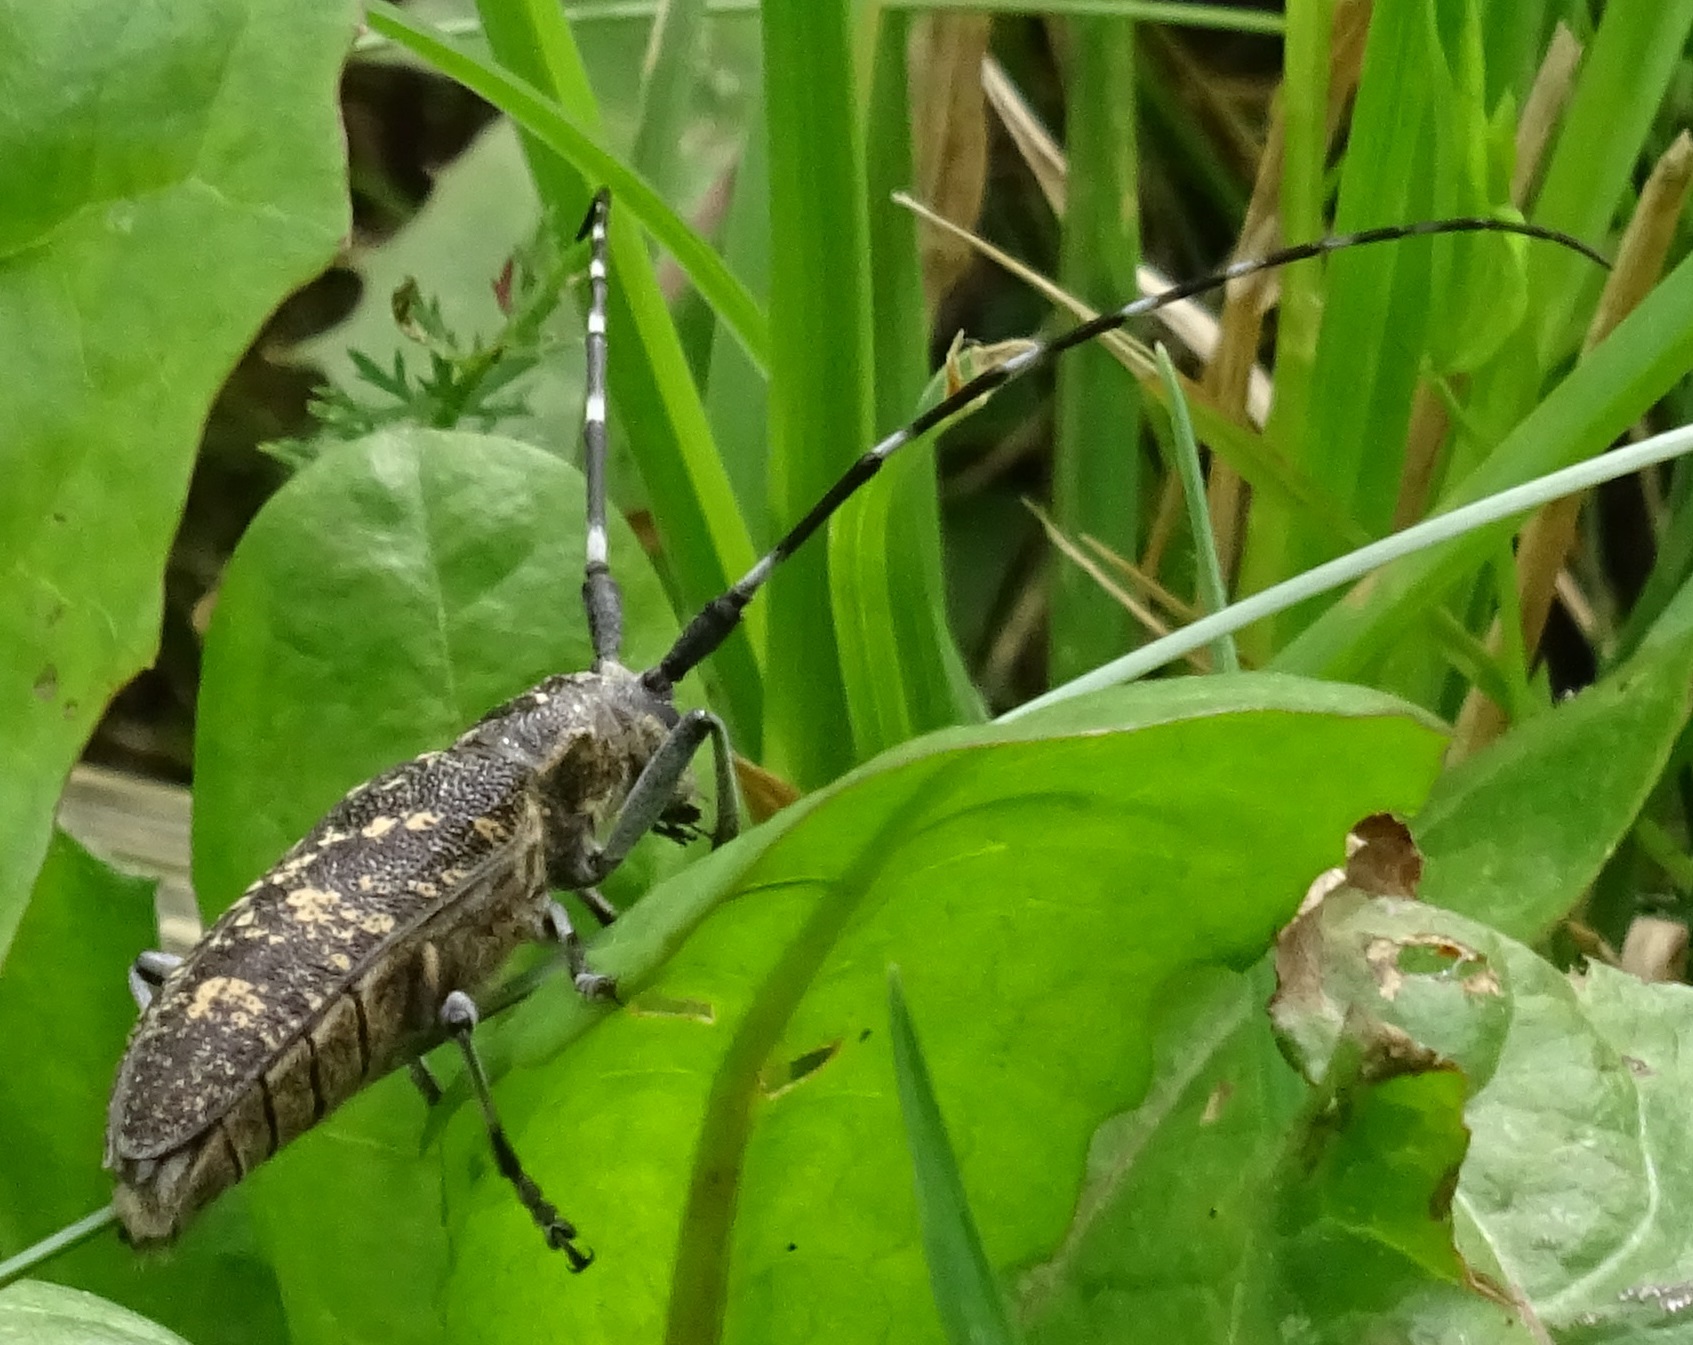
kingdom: Animalia
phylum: Arthropoda
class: Insecta
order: Coleoptera
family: Cerambycidae
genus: Monochamus
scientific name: Monochamus sutor
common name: Pine sawyer
